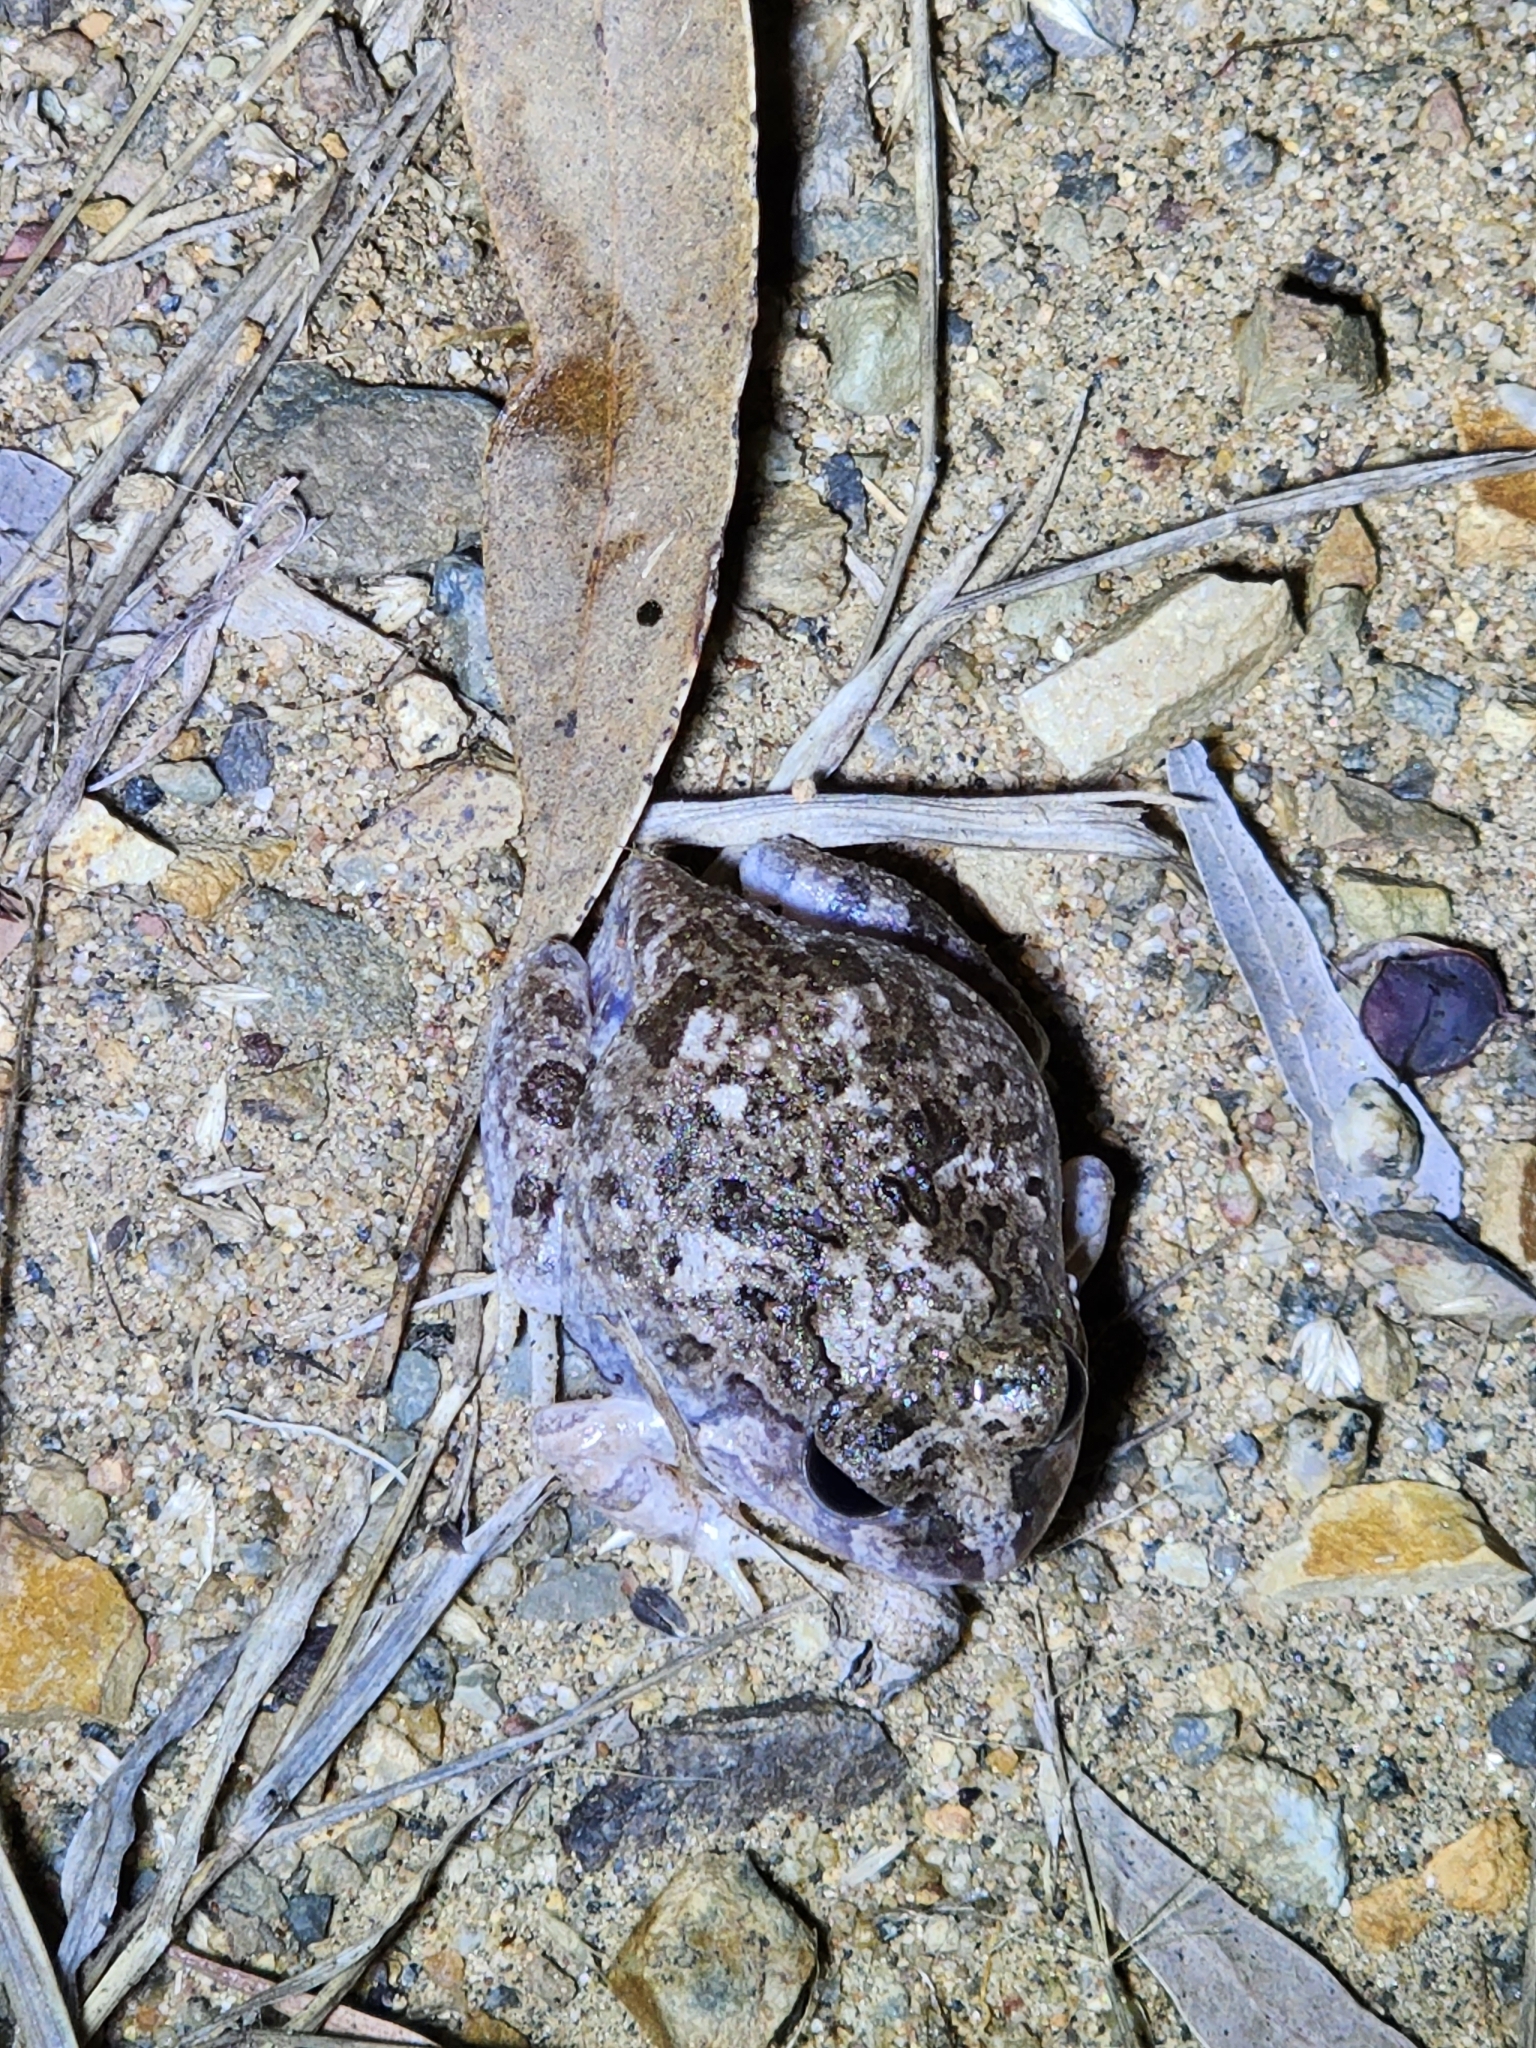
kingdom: Animalia
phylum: Chordata
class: Amphibia
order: Anura
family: Limnodynastidae
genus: Platyplectrum
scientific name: Platyplectrum ornatum
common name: Ornate burrowing frog
